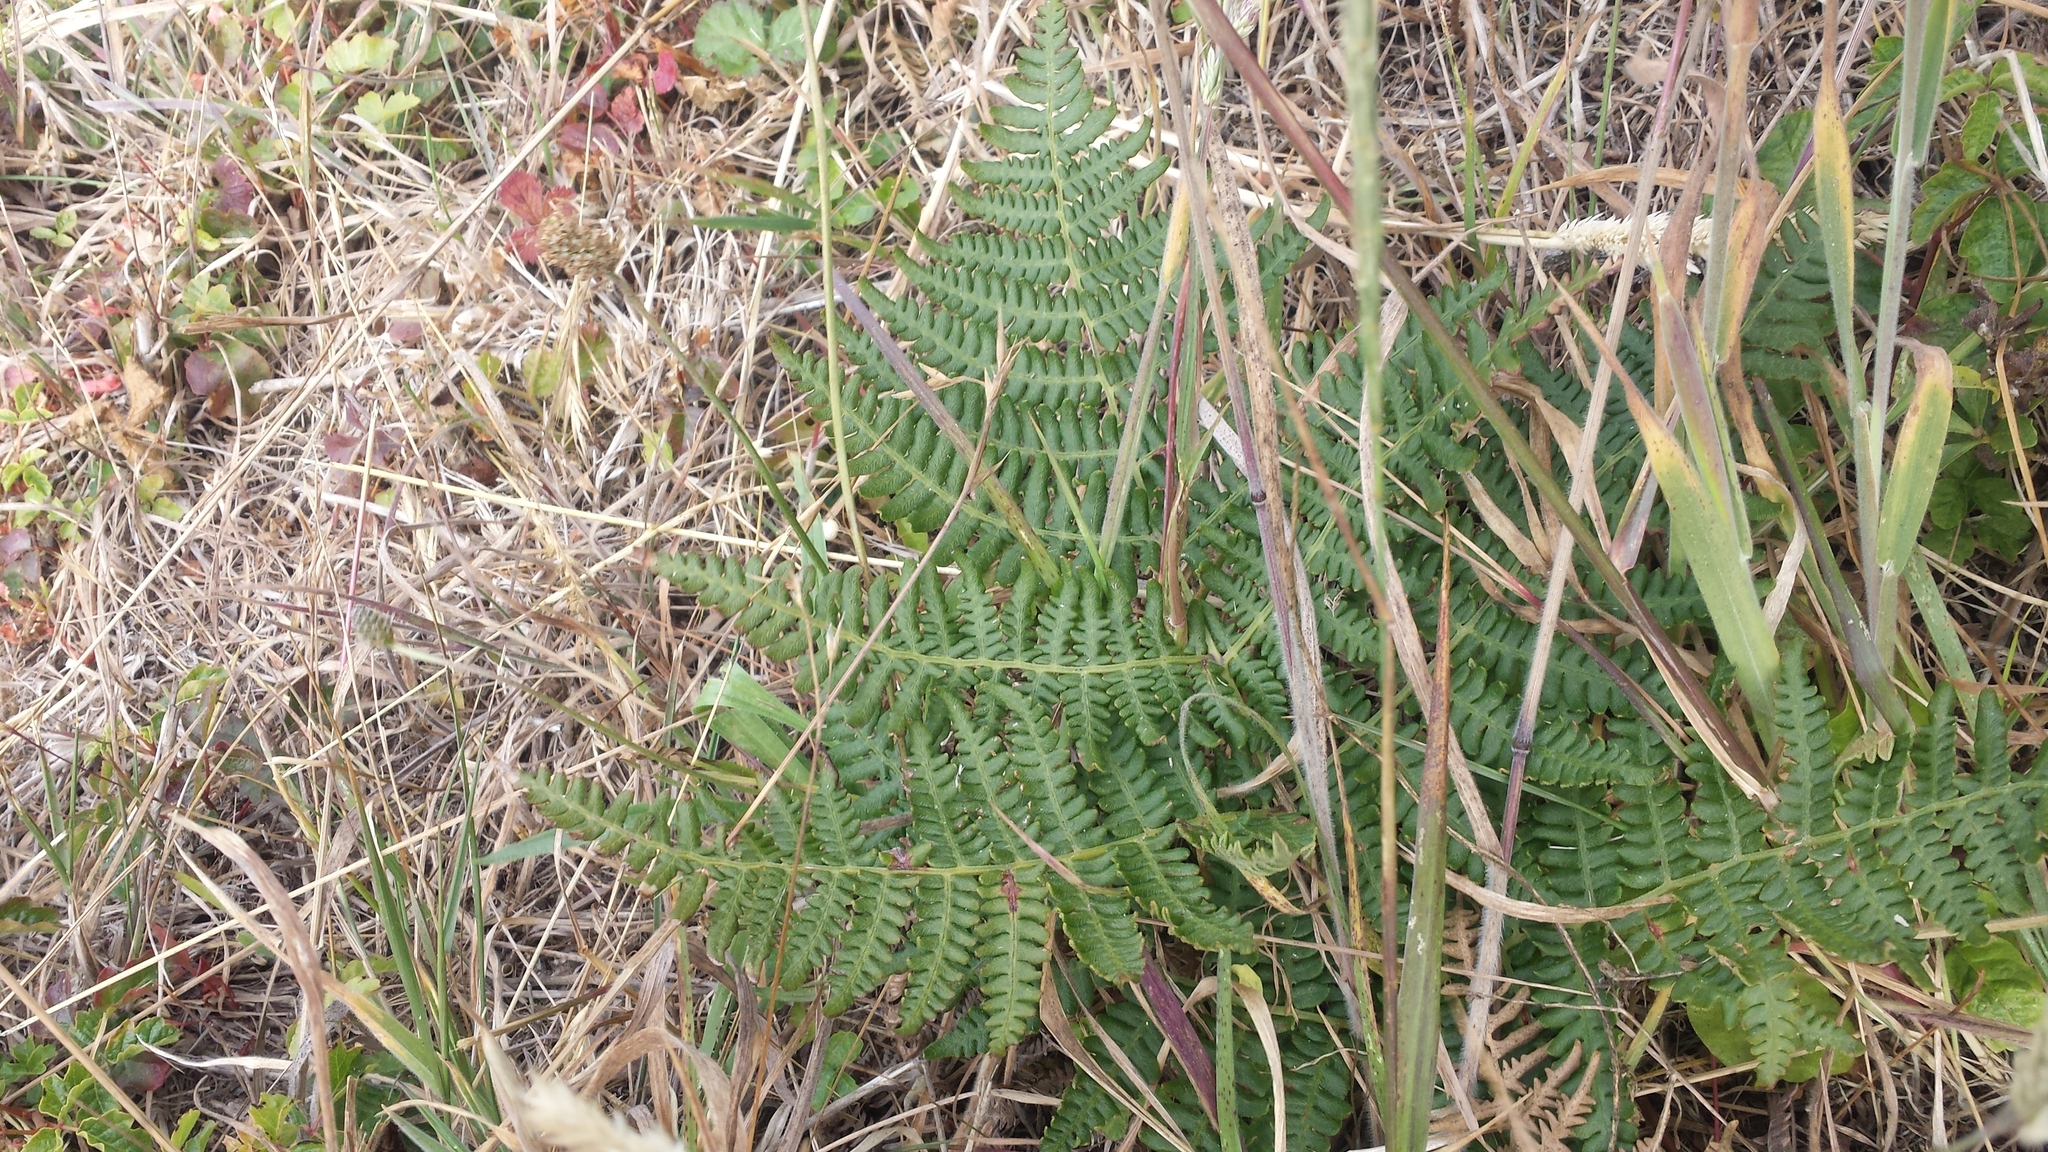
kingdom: Plantae
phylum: Tracheophyta
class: Polypodiopsida
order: Polypodiales
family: Dennstaedtiaceae
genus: Pteridium
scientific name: Pteridium aquilinum
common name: Bracken
